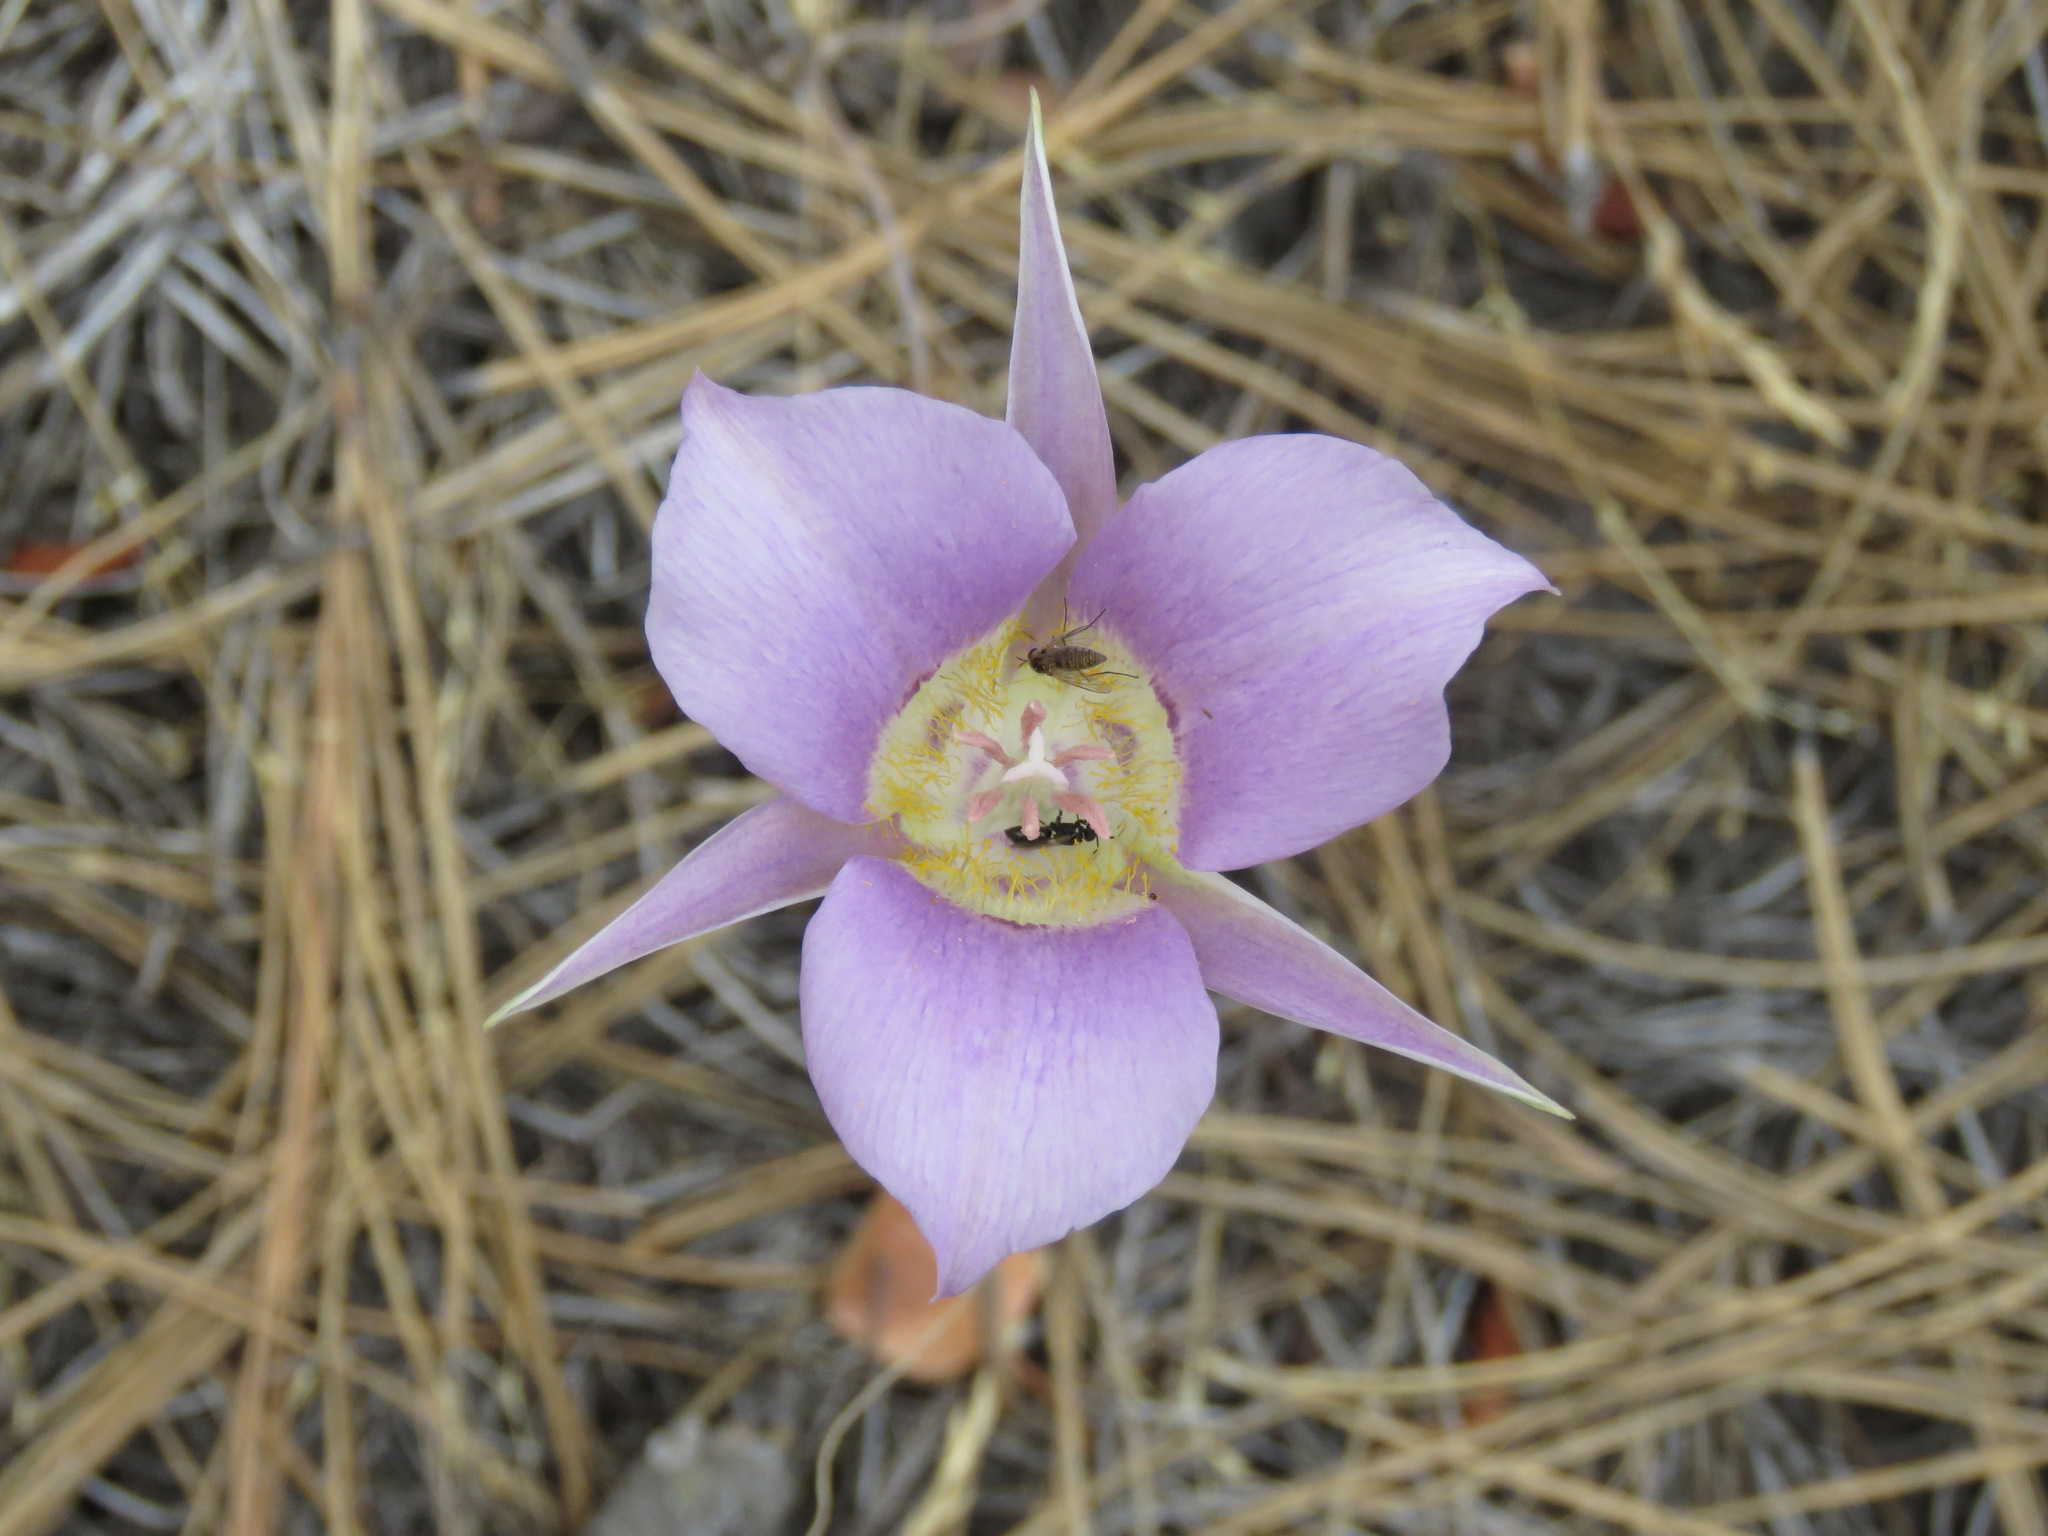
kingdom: Plantae
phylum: Tracheophyta
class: Liliopsida
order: Liliales
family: Liliaceae
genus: Calochortus
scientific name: Calochortus macrocarpus
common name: Green-band mariposa lily
